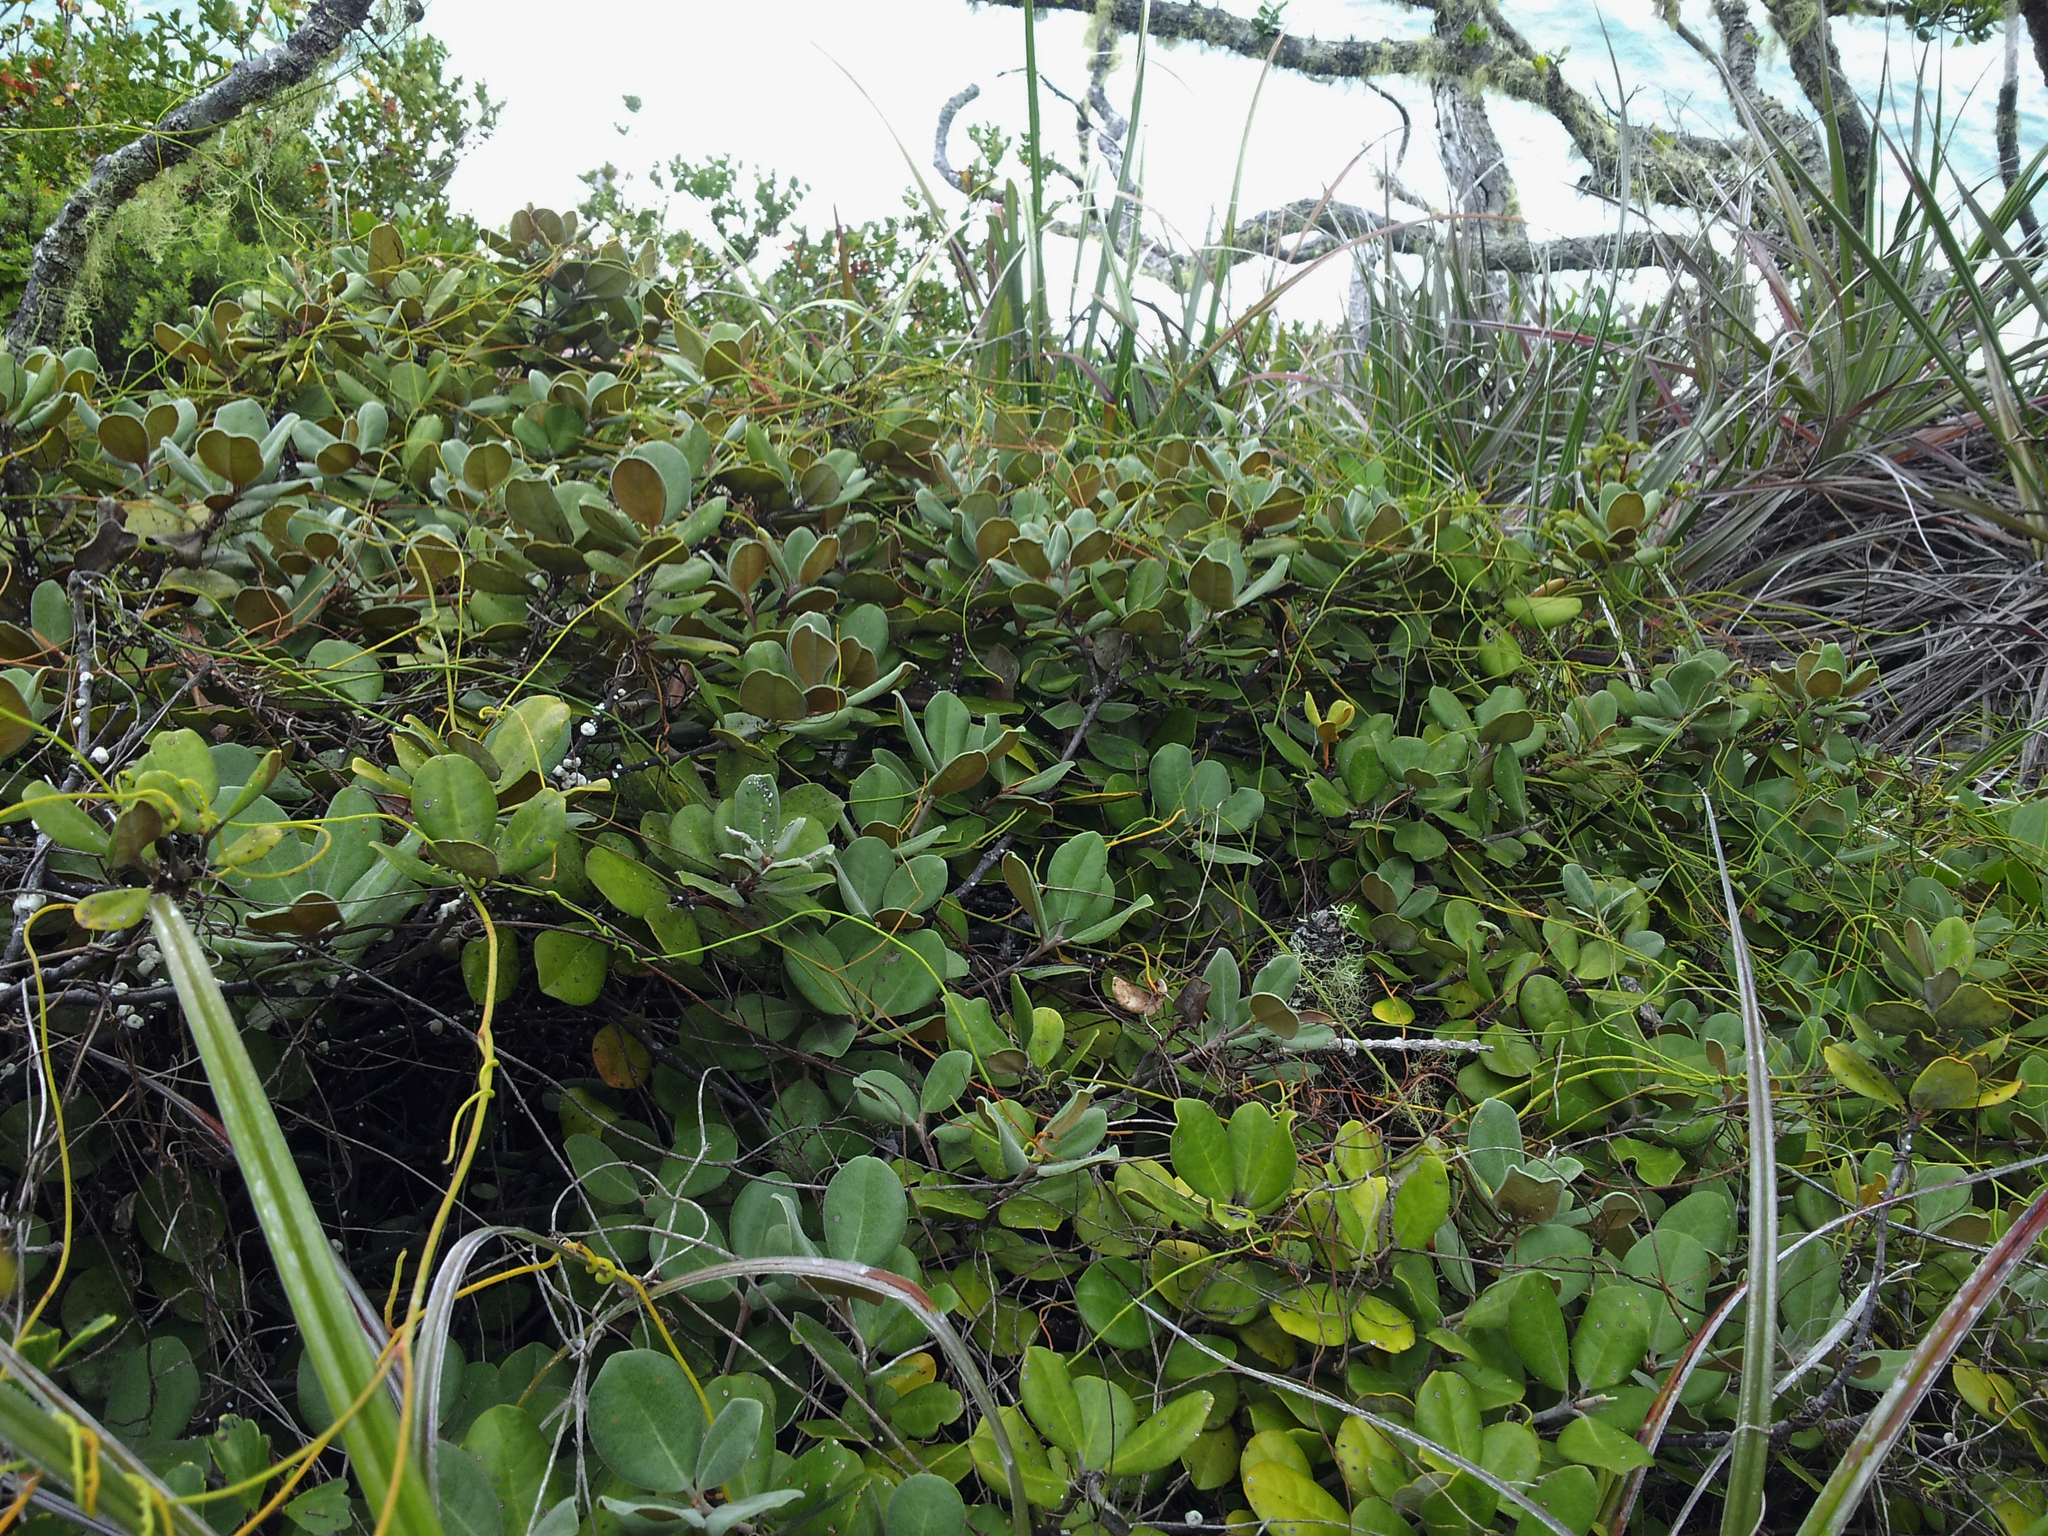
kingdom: Plantae
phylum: Tracheophyta
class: Magnoliopsida
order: Apiales
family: Pittosporaceae
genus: Pittosporum
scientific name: Pittosporum serpentinum
